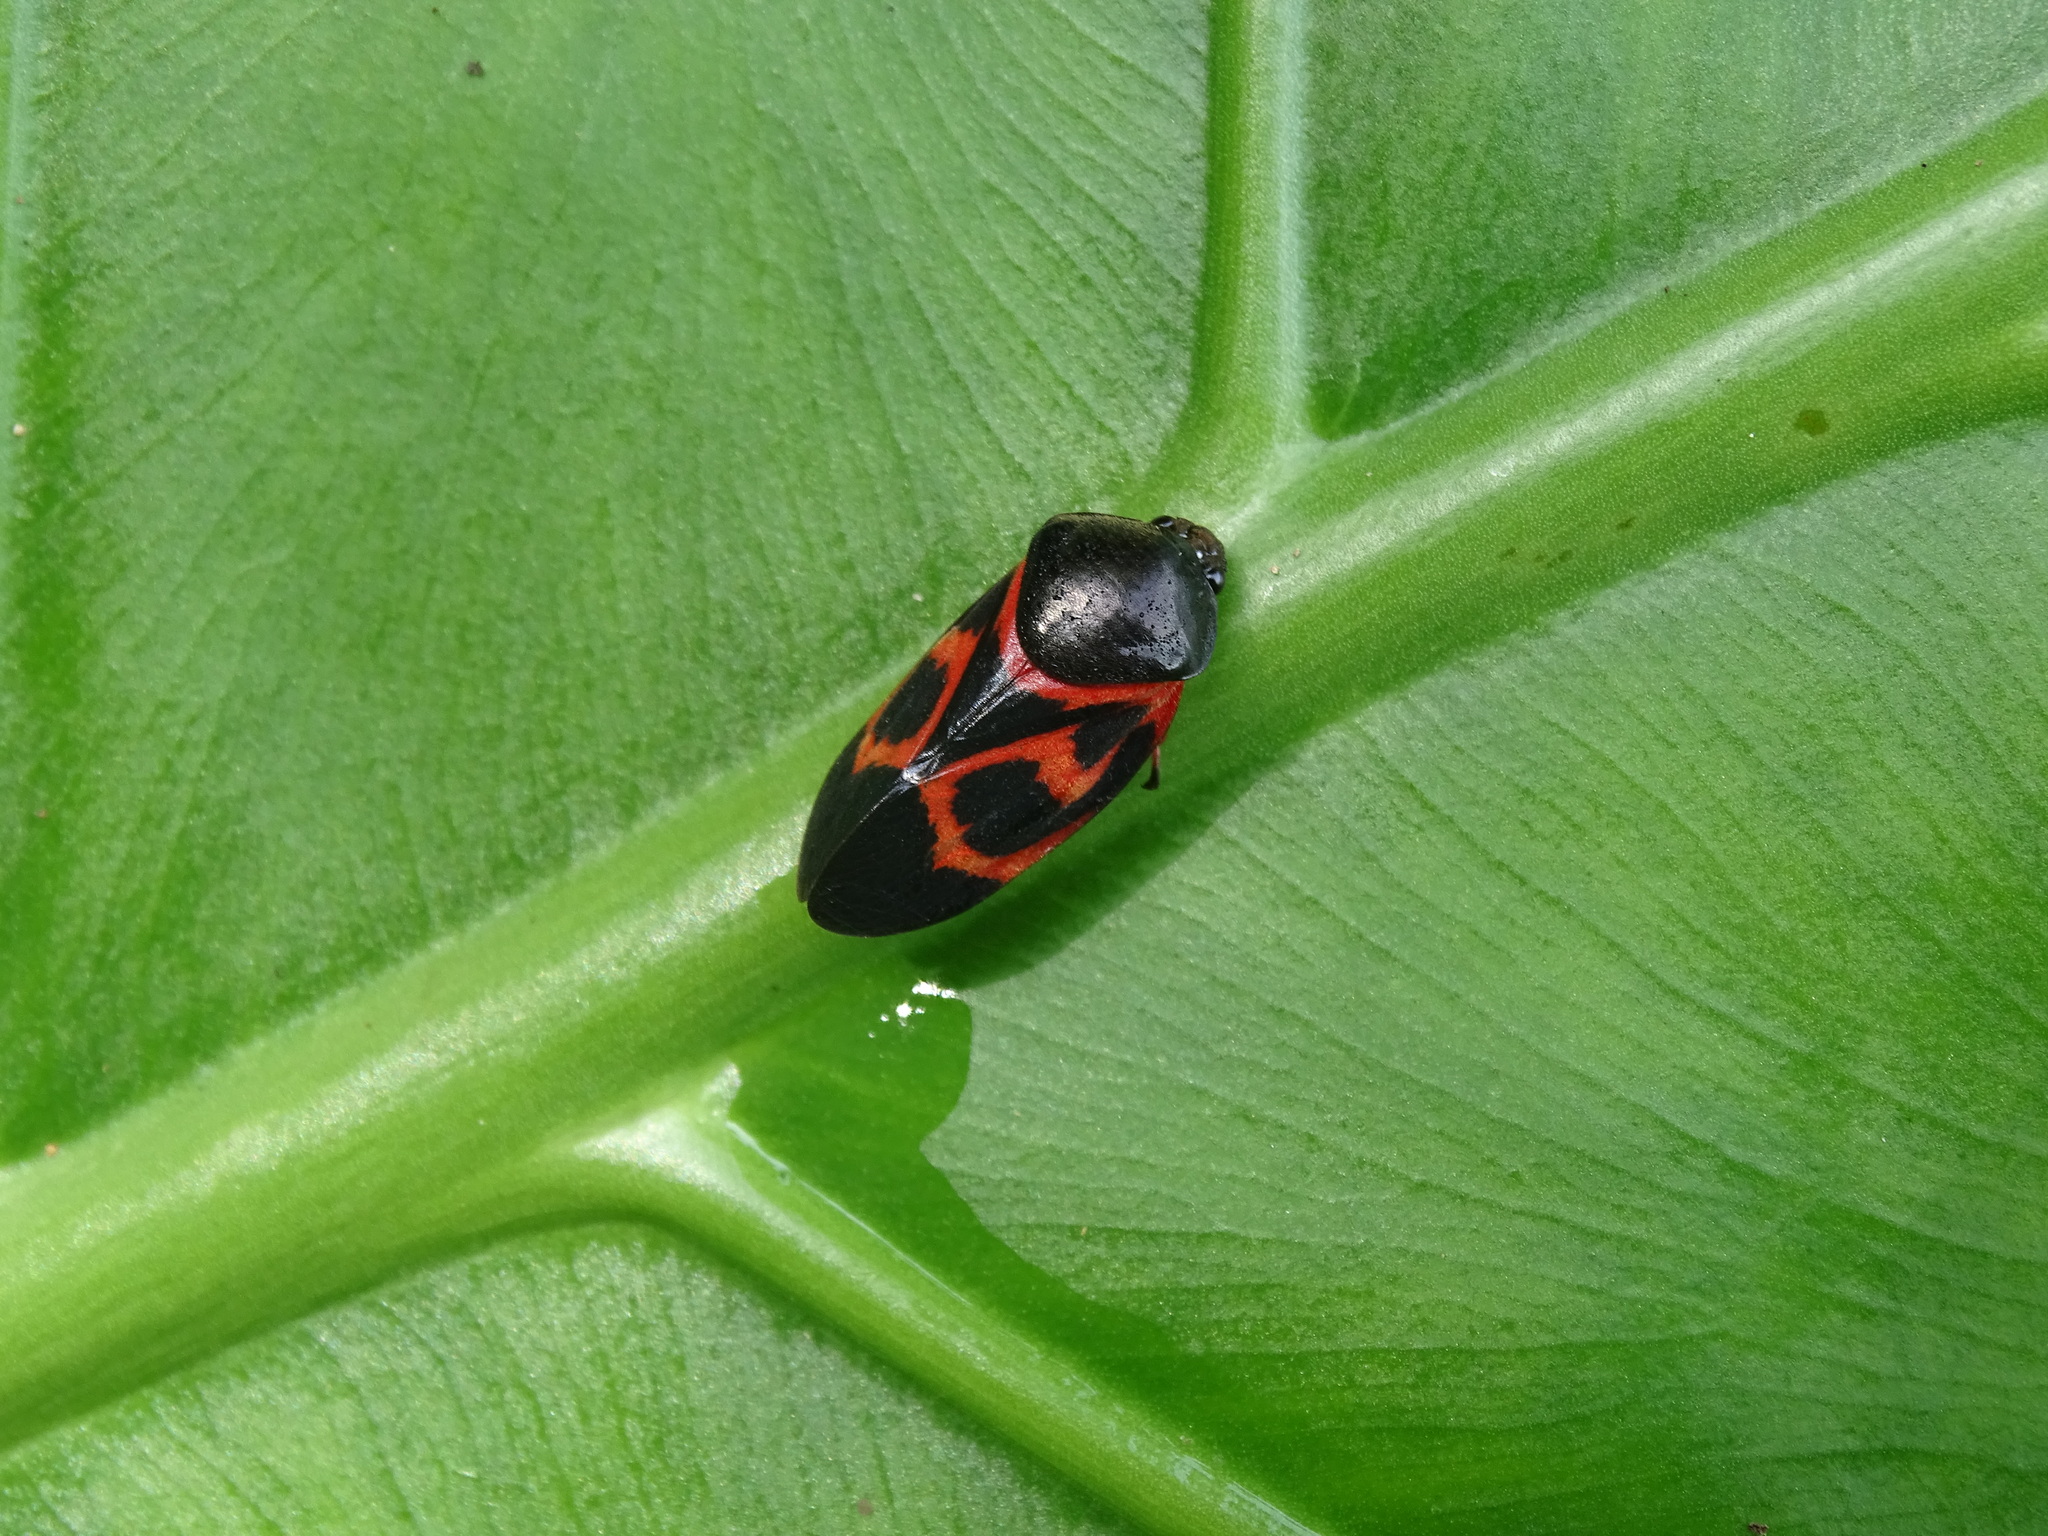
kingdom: Animalia
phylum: Arthropoda
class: Insecta
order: Hemiptera
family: Cercopidae
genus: Okiscarta
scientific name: Okiscarta uchidae
